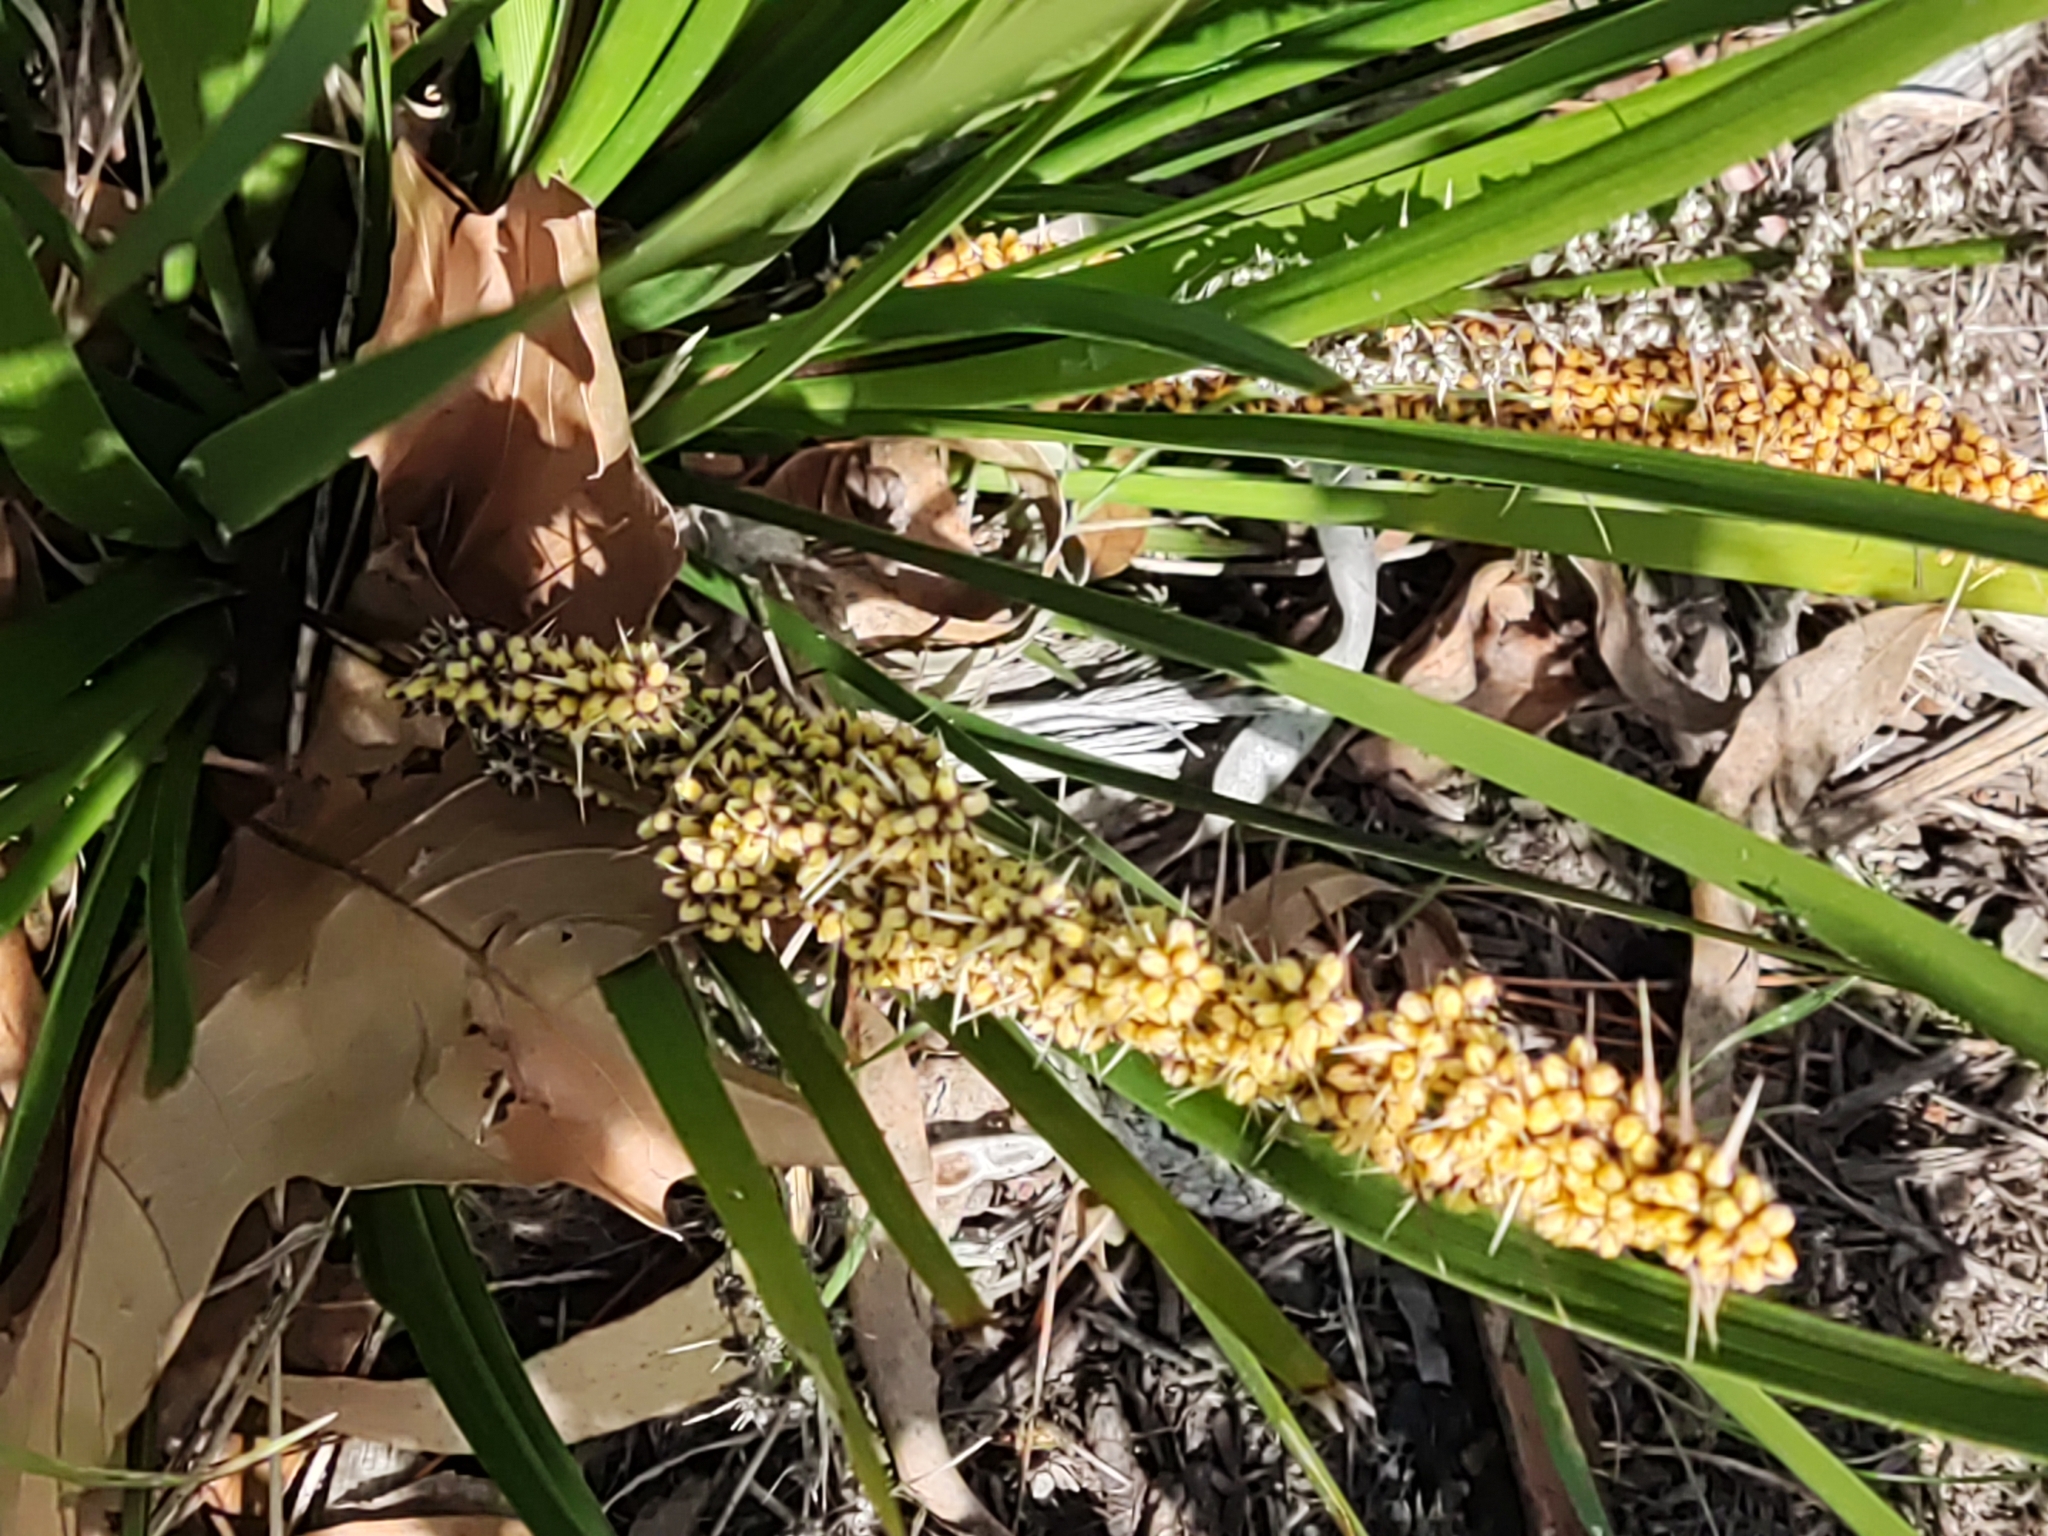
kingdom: Plantae
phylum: Tracheophyta
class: Liliopsida
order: Asparagales
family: Asparagaceae
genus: Lomandra
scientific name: Lomandra longifolia
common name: Longleaf mat-rush
